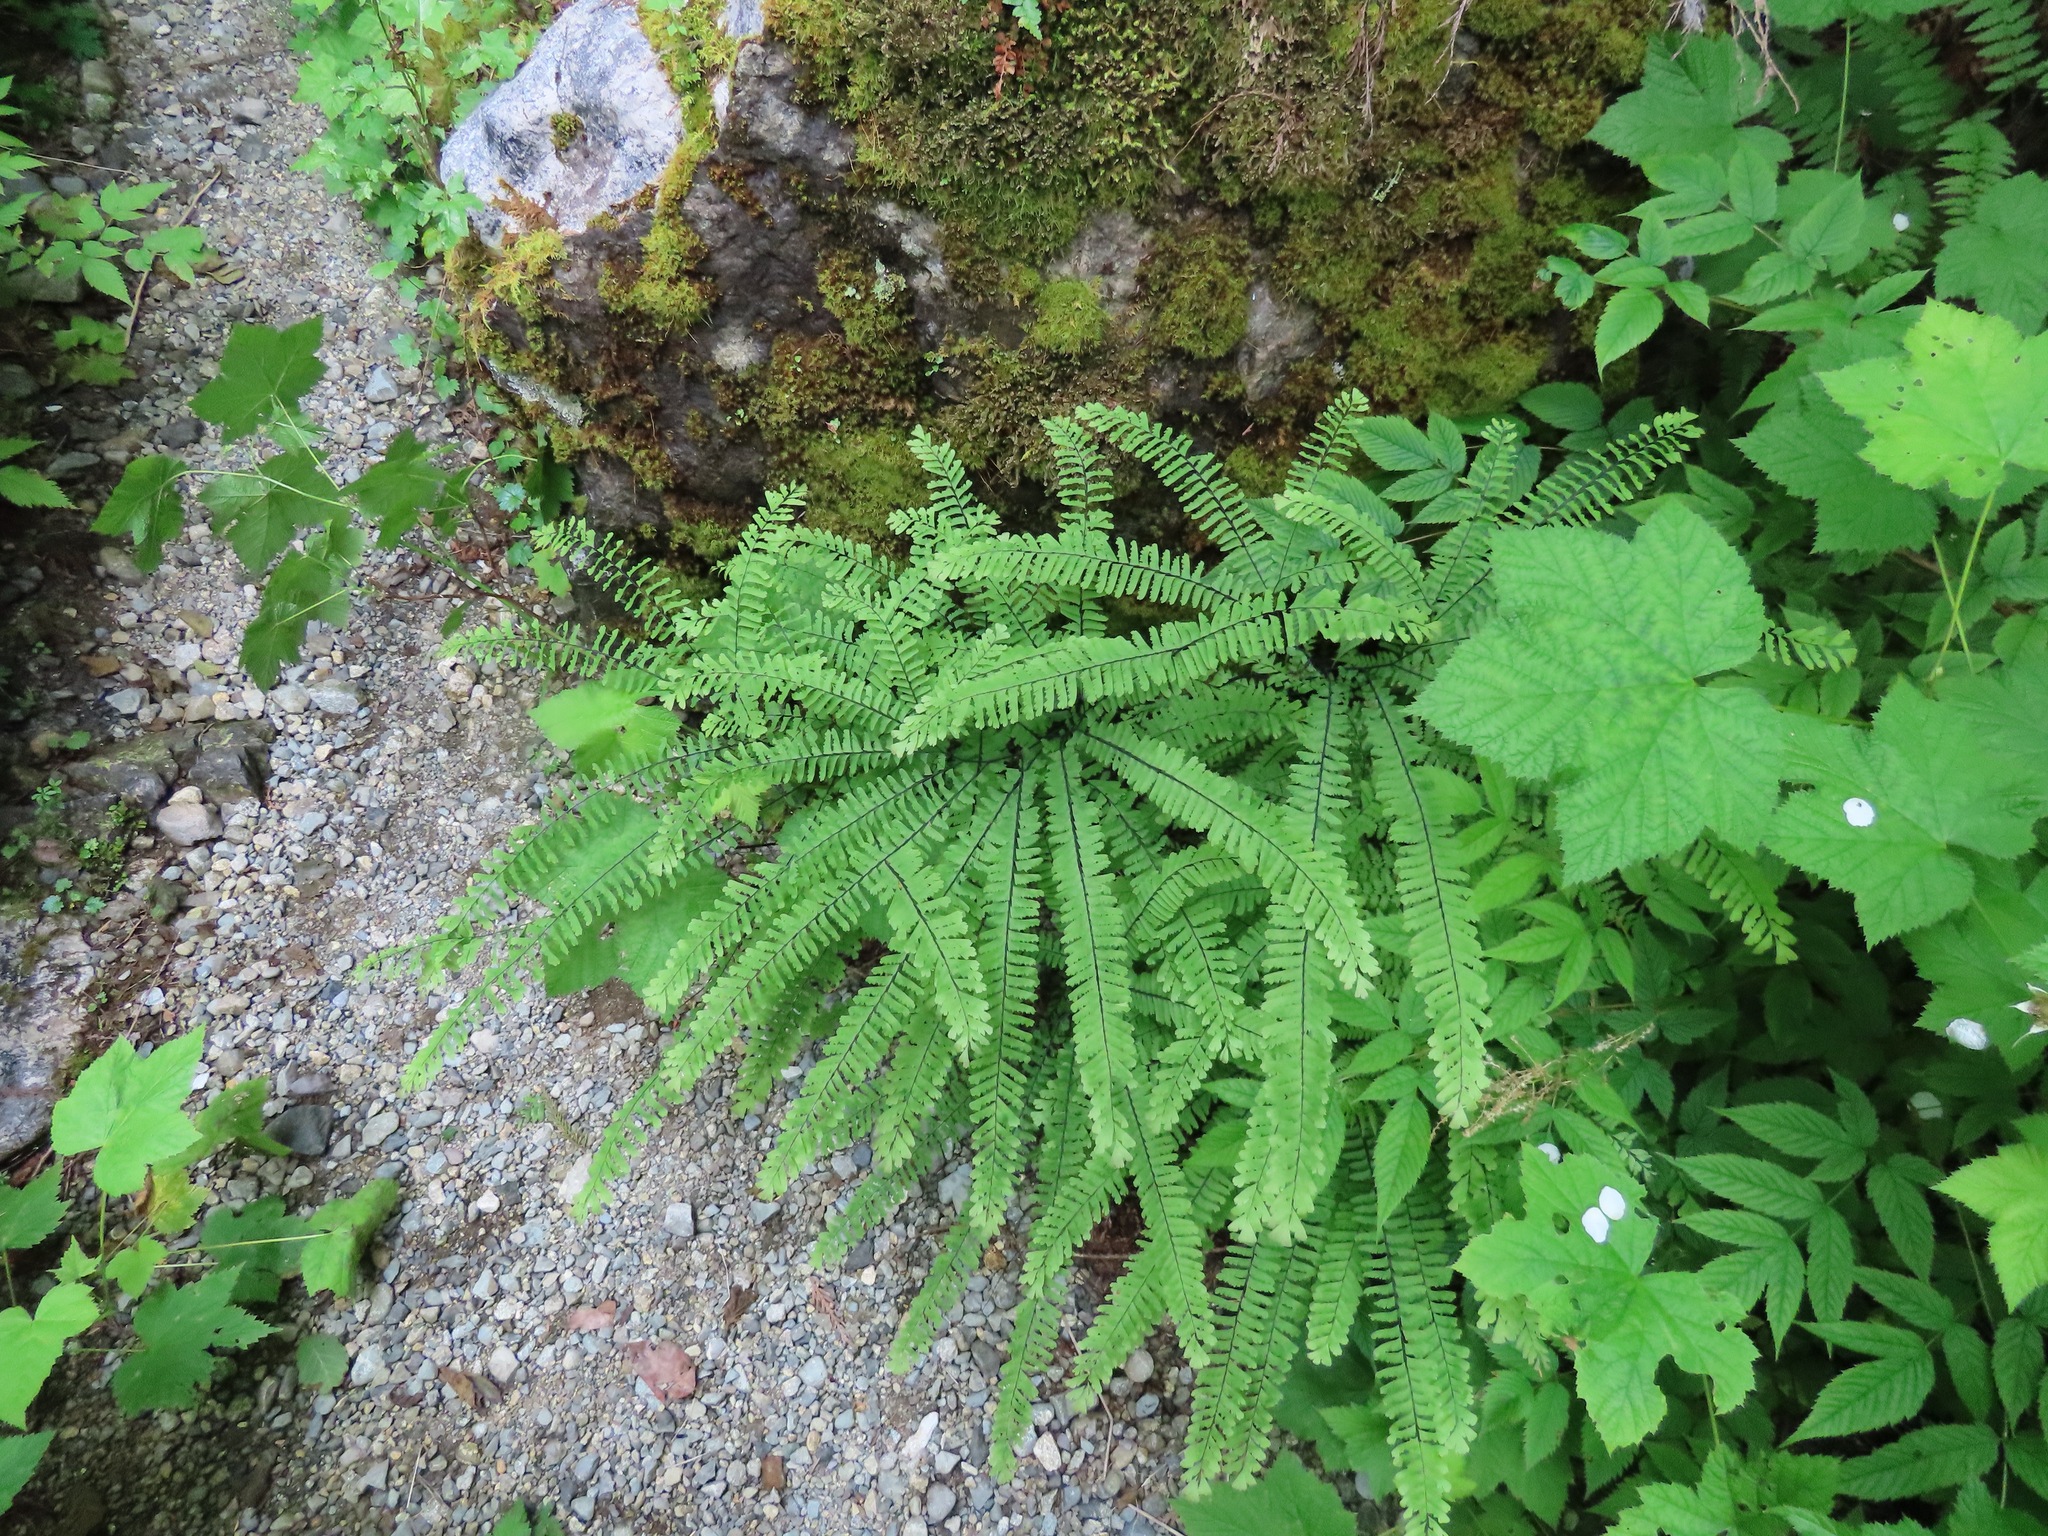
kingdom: Plantae
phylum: Tracheophyta
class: Polypodiopsida
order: Polypodiales
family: Pteridaceae
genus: Adiantum
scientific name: Adiantum aleuticum
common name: Aleutian maidenhair fern
